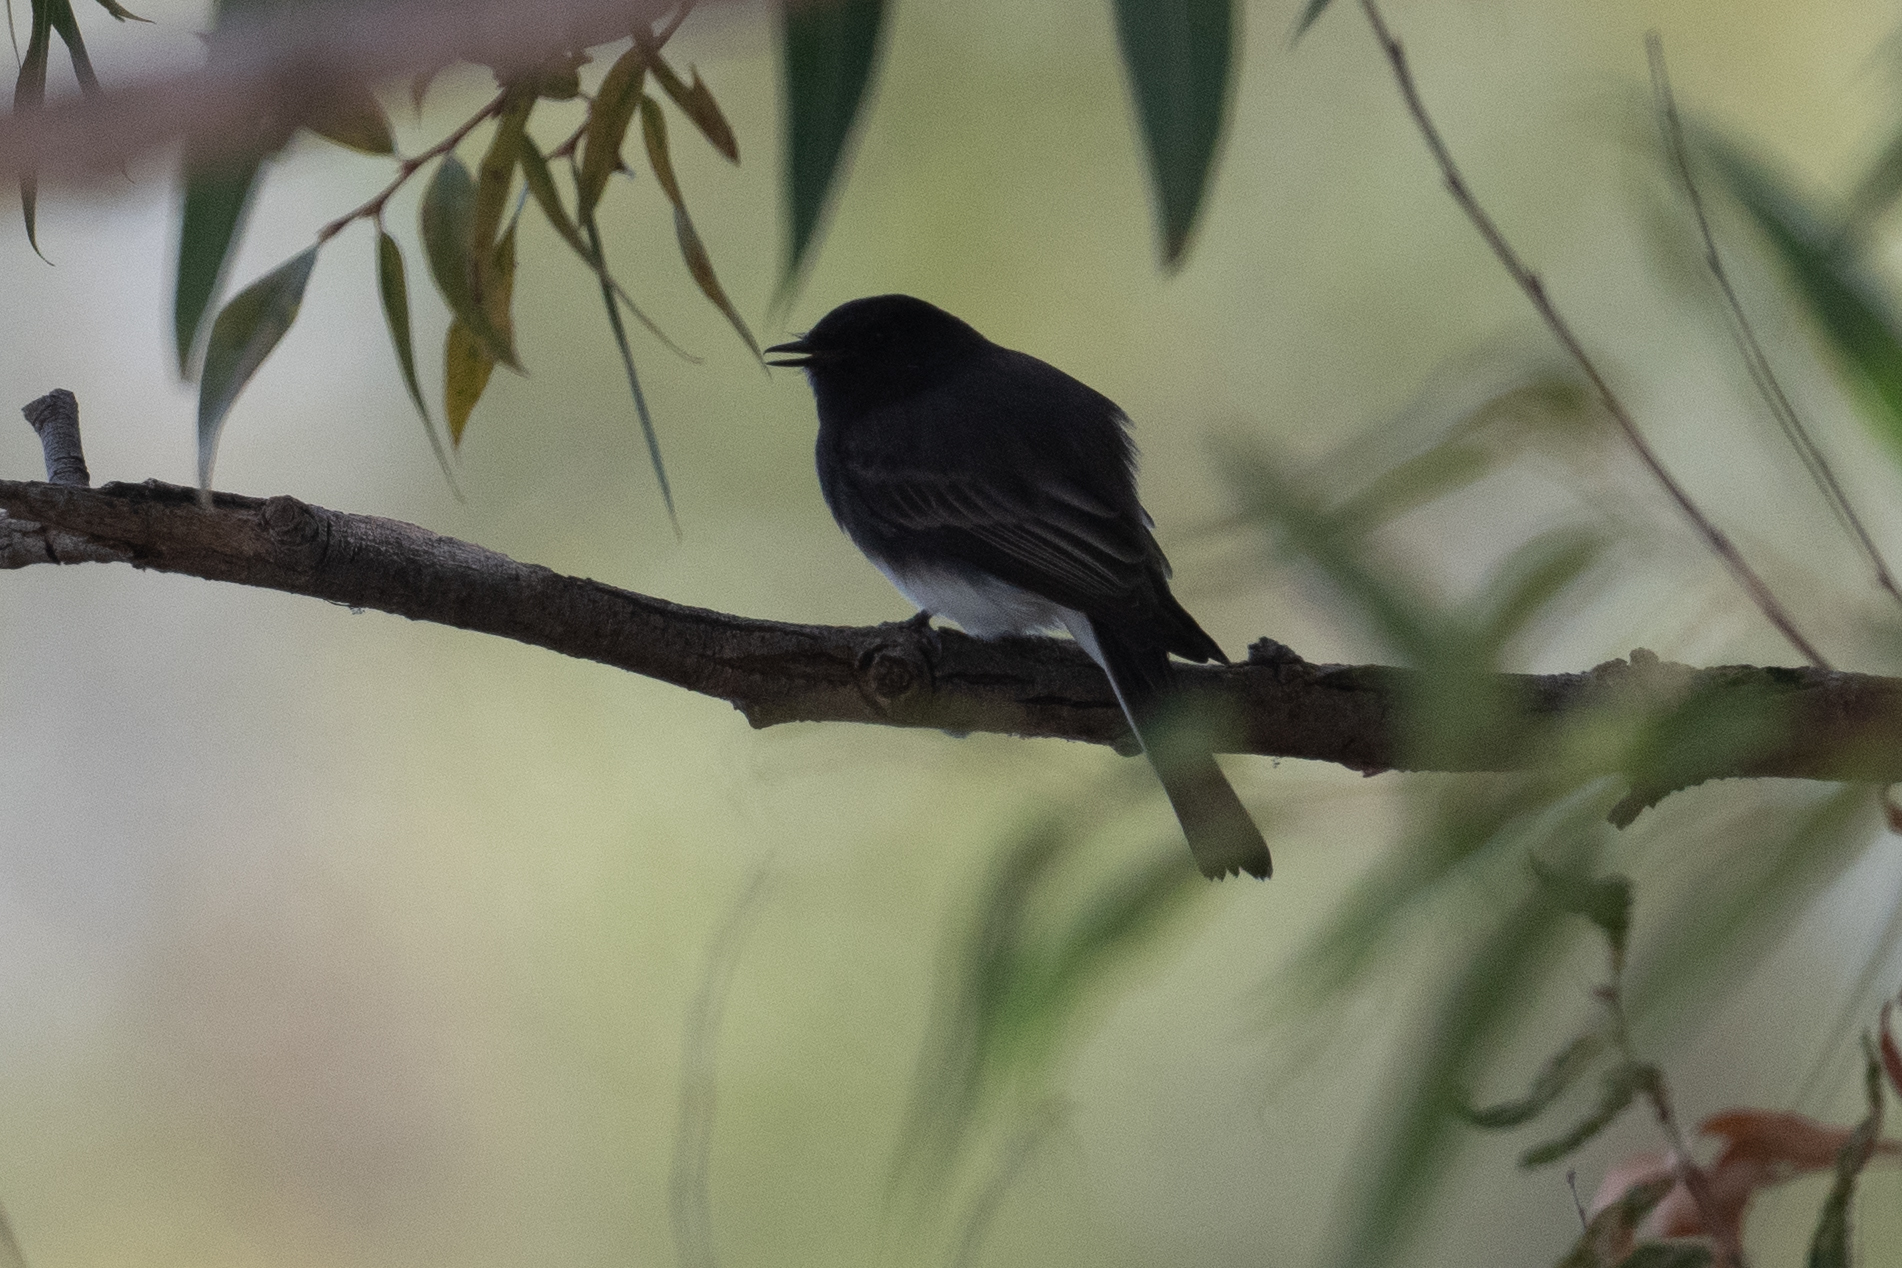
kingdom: Animalia
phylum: Chordata
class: Aves
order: Passeriformes
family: Tyrannidae
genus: Sayornis
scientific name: Sayornis nigricans
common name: Black phoebe
